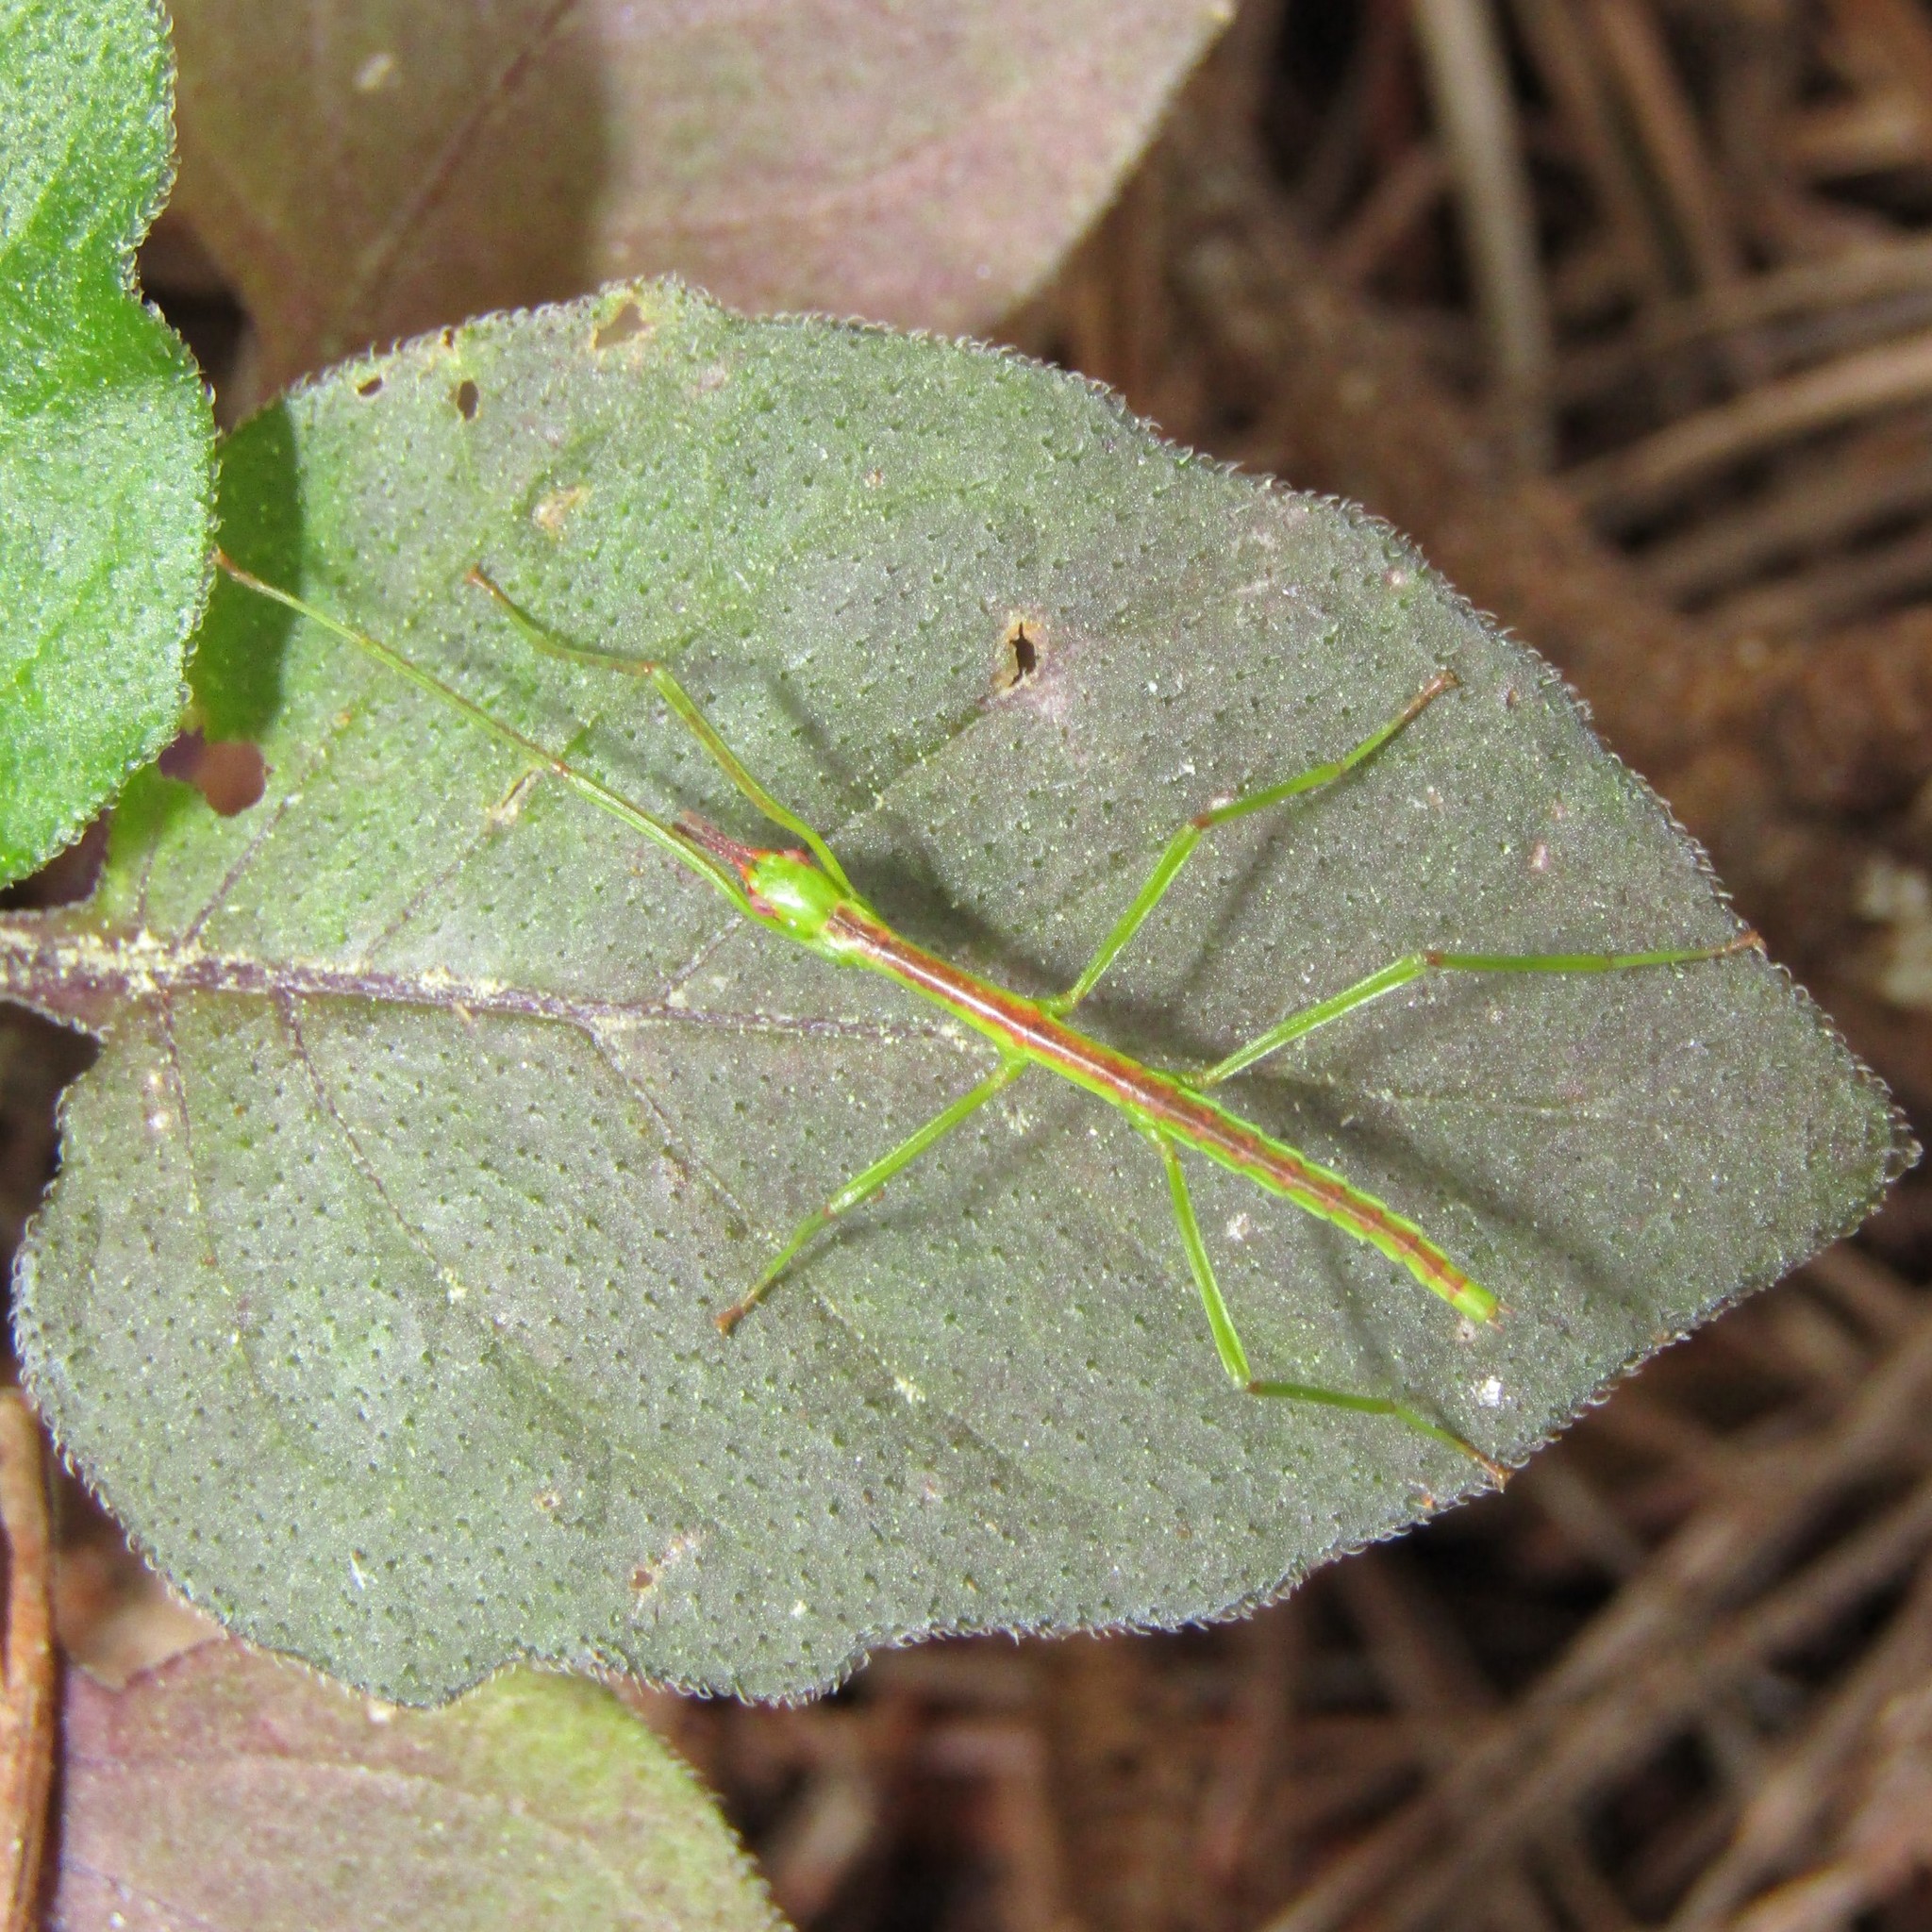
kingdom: Animalia
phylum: Arthropoda
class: Insecta
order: Phasmida
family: Phasmatidae
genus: Clitarchus
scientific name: Clitarchus hookeri
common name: Smooth stick insect
